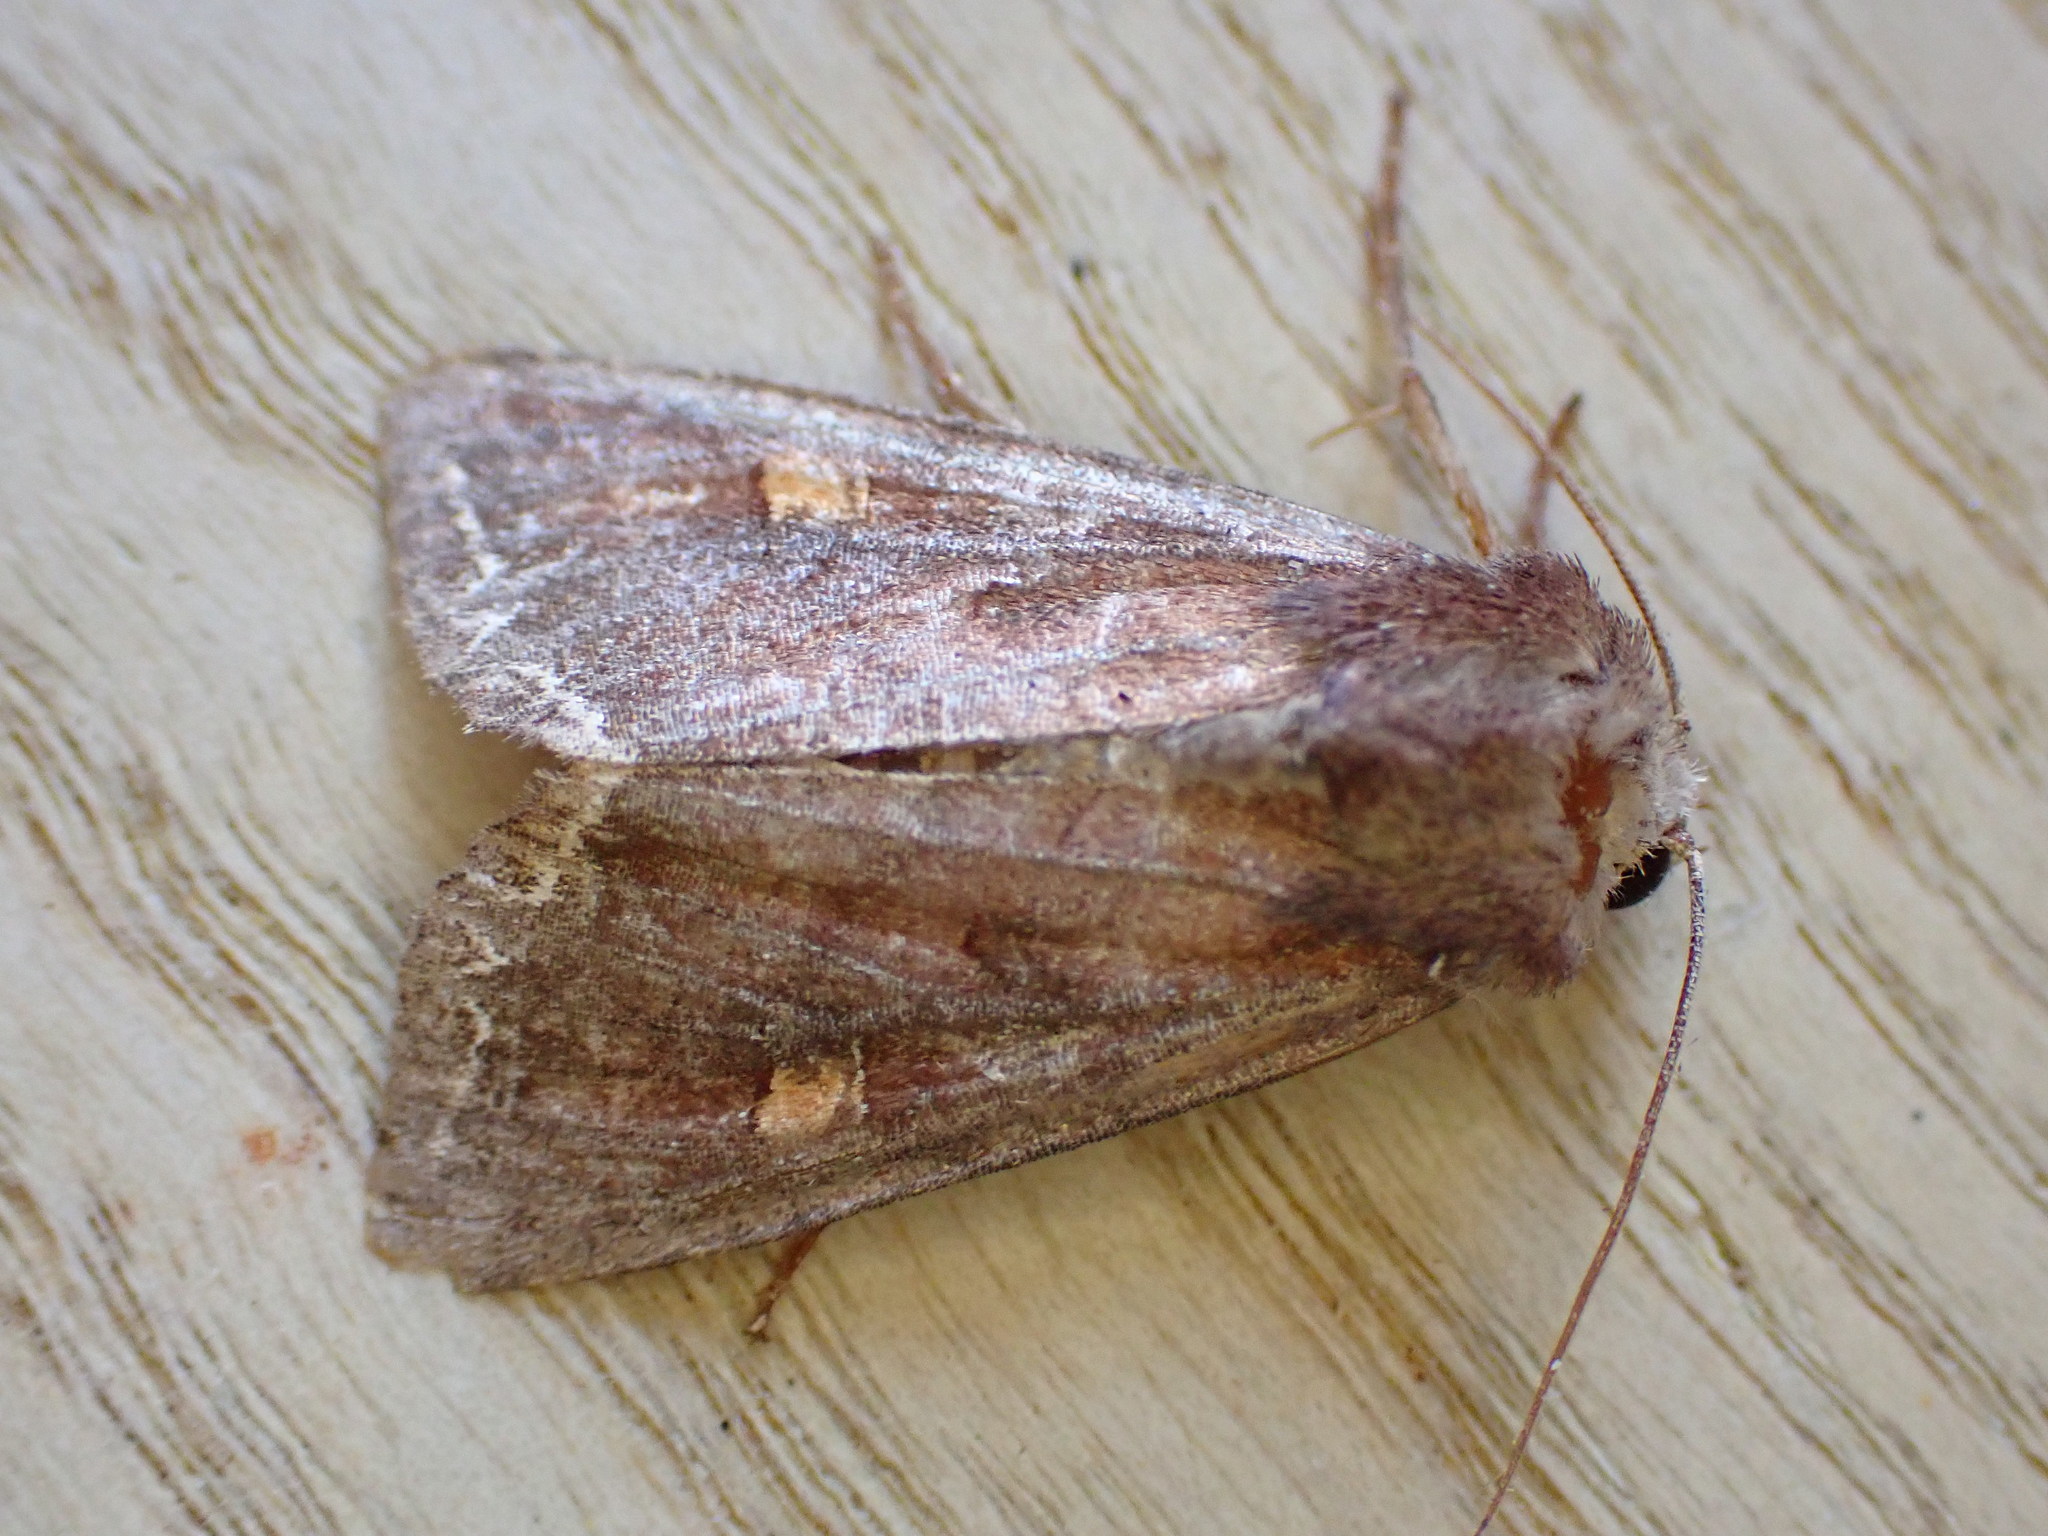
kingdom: Animalia
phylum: Arthropoda
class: Insecta
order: Lepidoptera
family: Noctuidae
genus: Lacanobia
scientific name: Lacanobia oleracea
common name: Bright-line brown-eye
